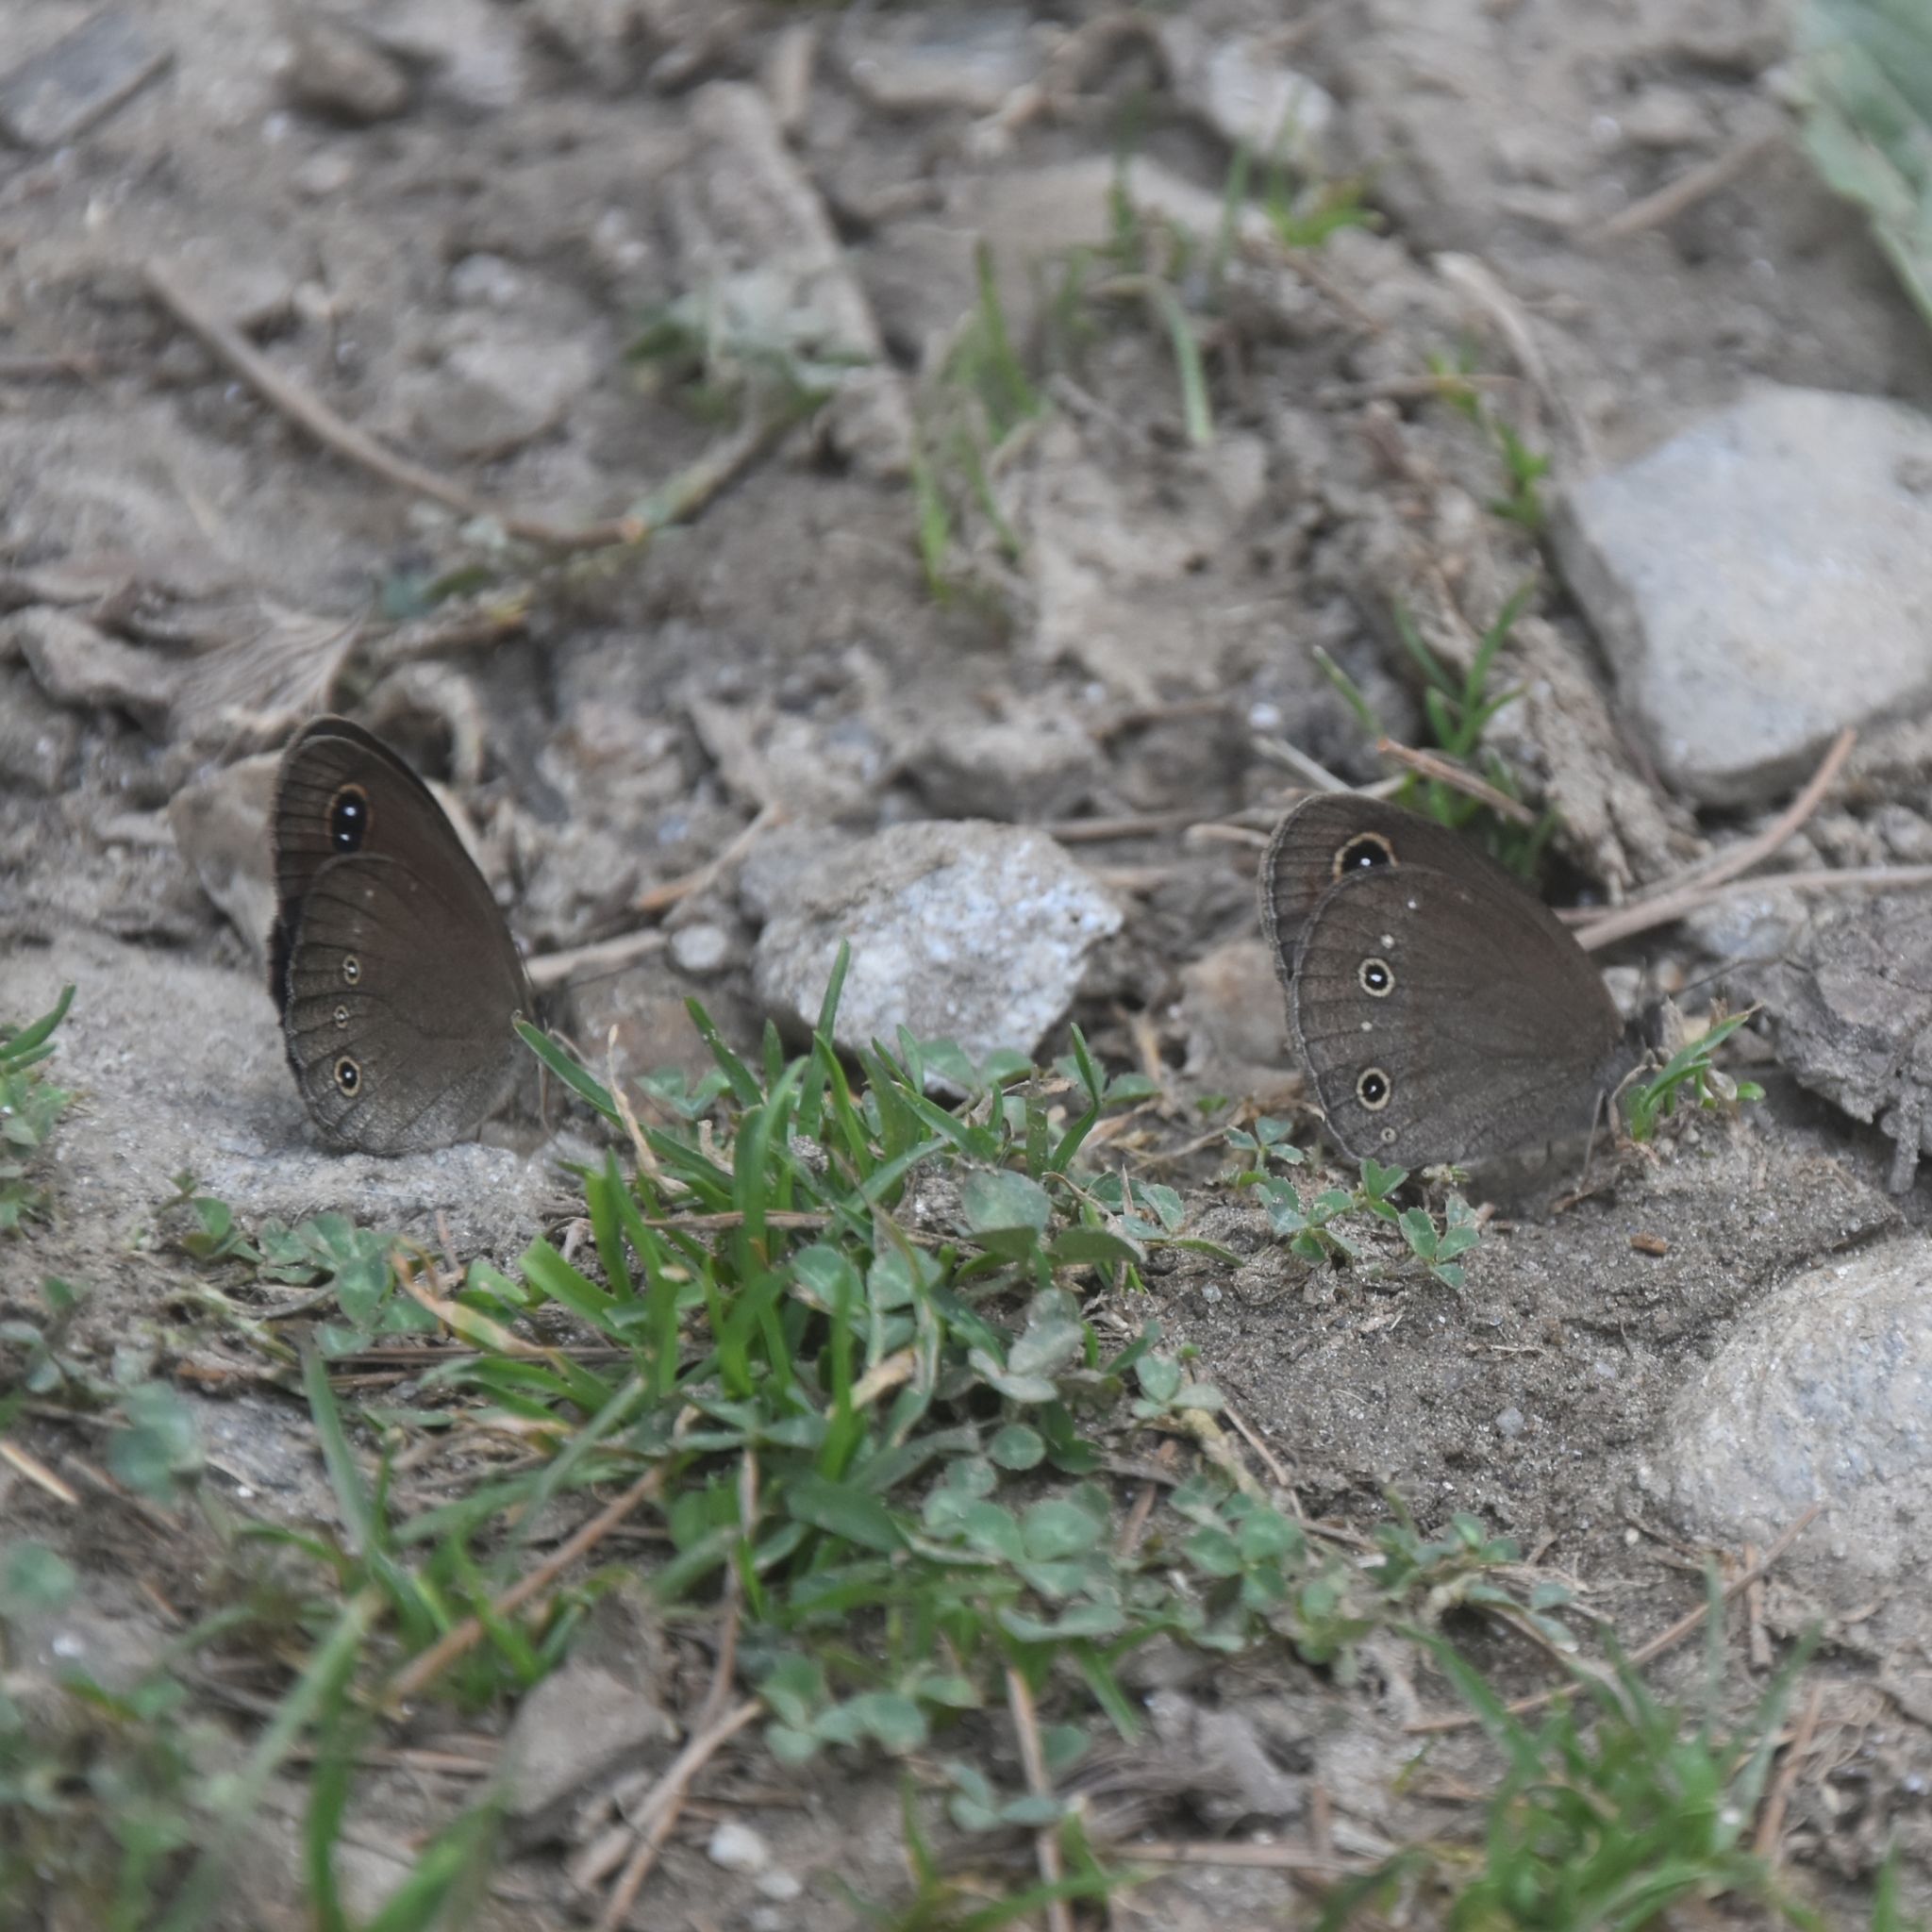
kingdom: Animalia
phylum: Arthropoda
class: Insecta
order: Lepidoptera
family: Nymphalidae
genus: Callerebia
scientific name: Callerebia nirmala
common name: Common argus
